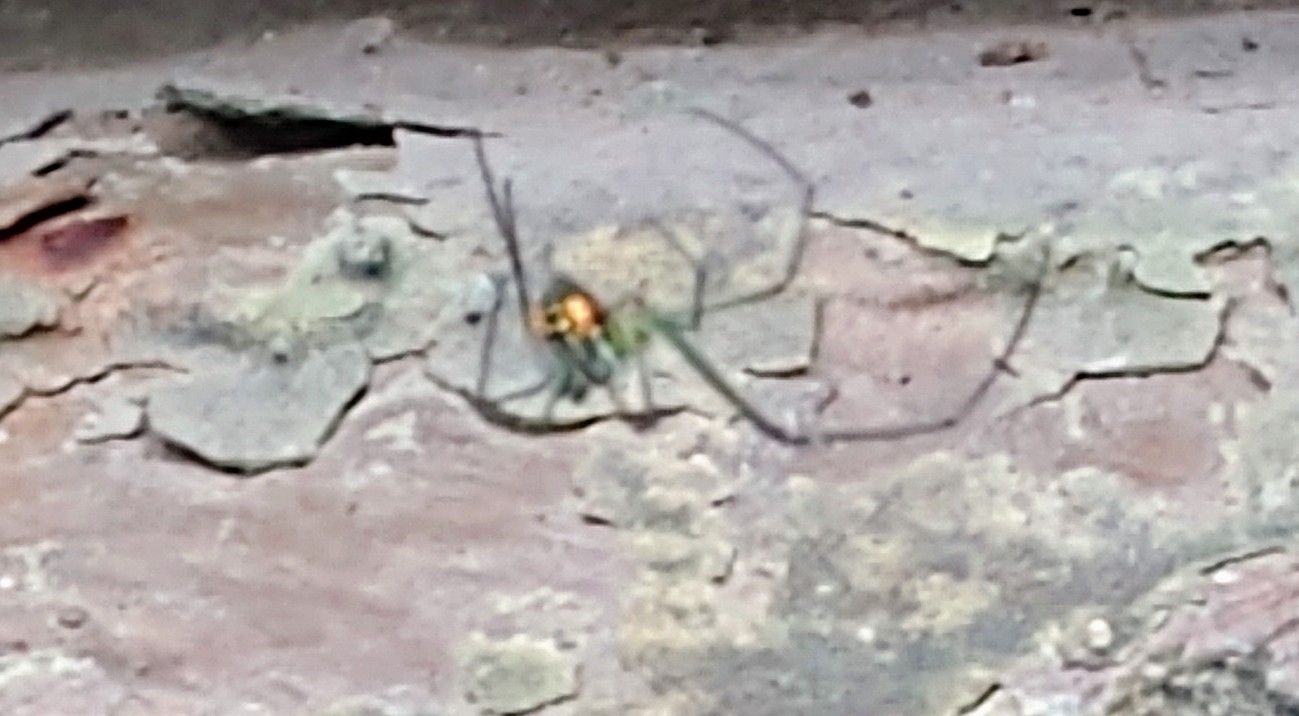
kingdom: Animalia
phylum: Arthropoda
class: Arachnida
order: Araneae
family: Tetragnathidae
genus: Leucauge
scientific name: Leucauge argyrobapta
